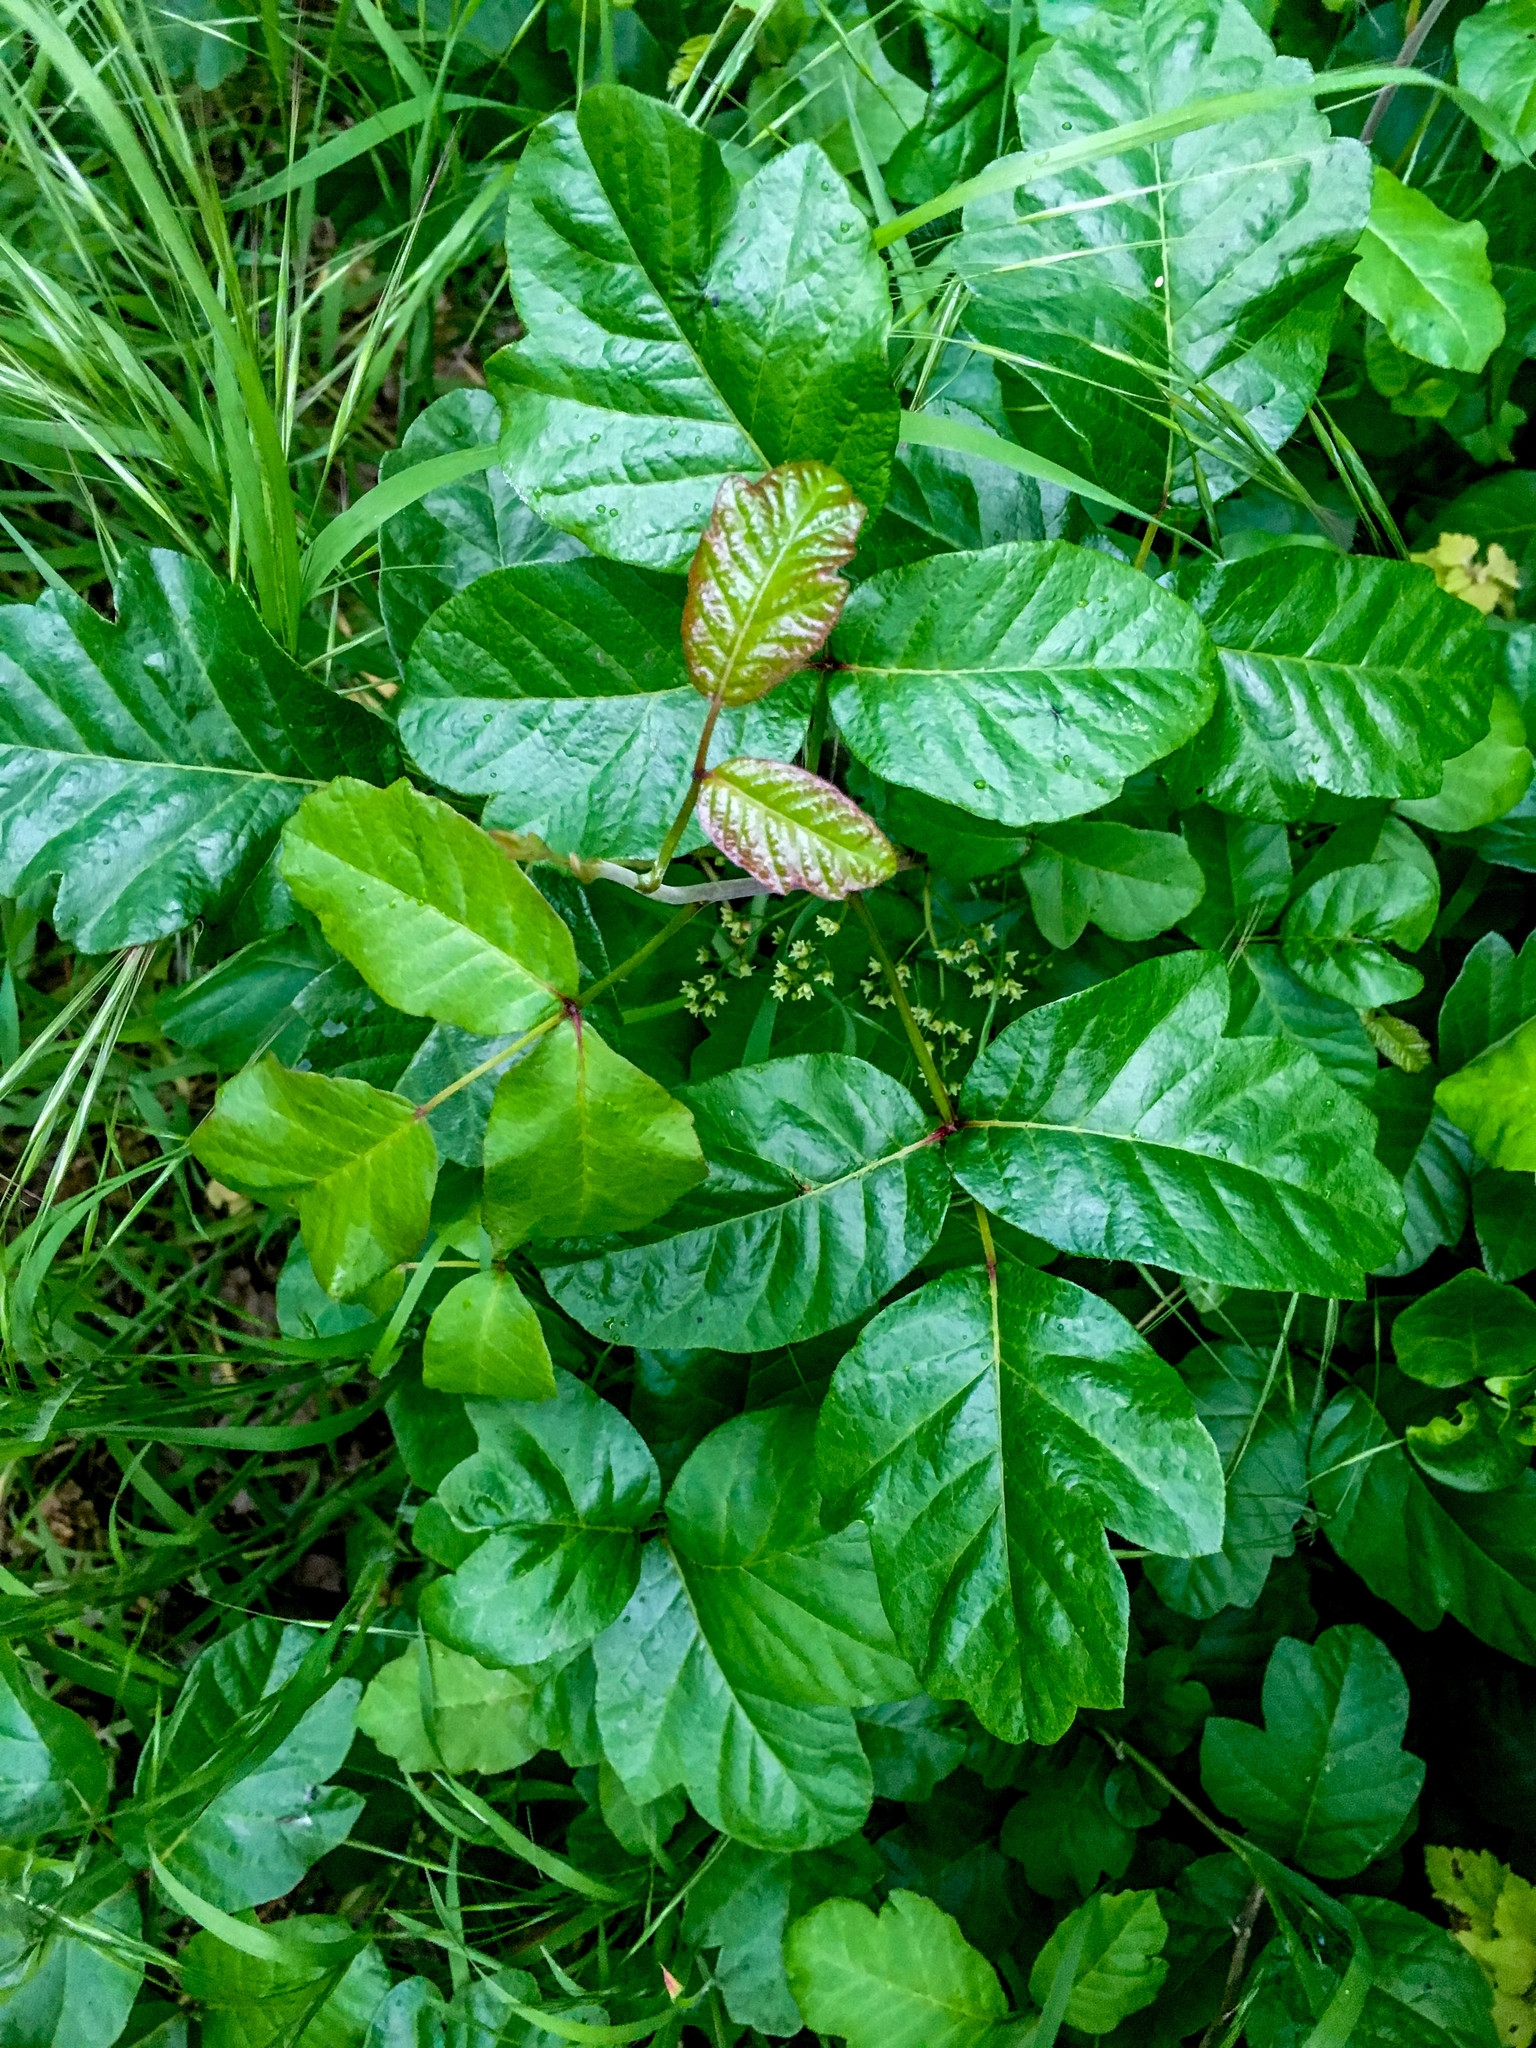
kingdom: Plantae
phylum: Tracheophyta
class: Magnoliopsida
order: Sapindales
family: Anacardiaceae
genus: Toxicodendron
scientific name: Toxicodendron diversilobum
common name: Pacific poison-oak
